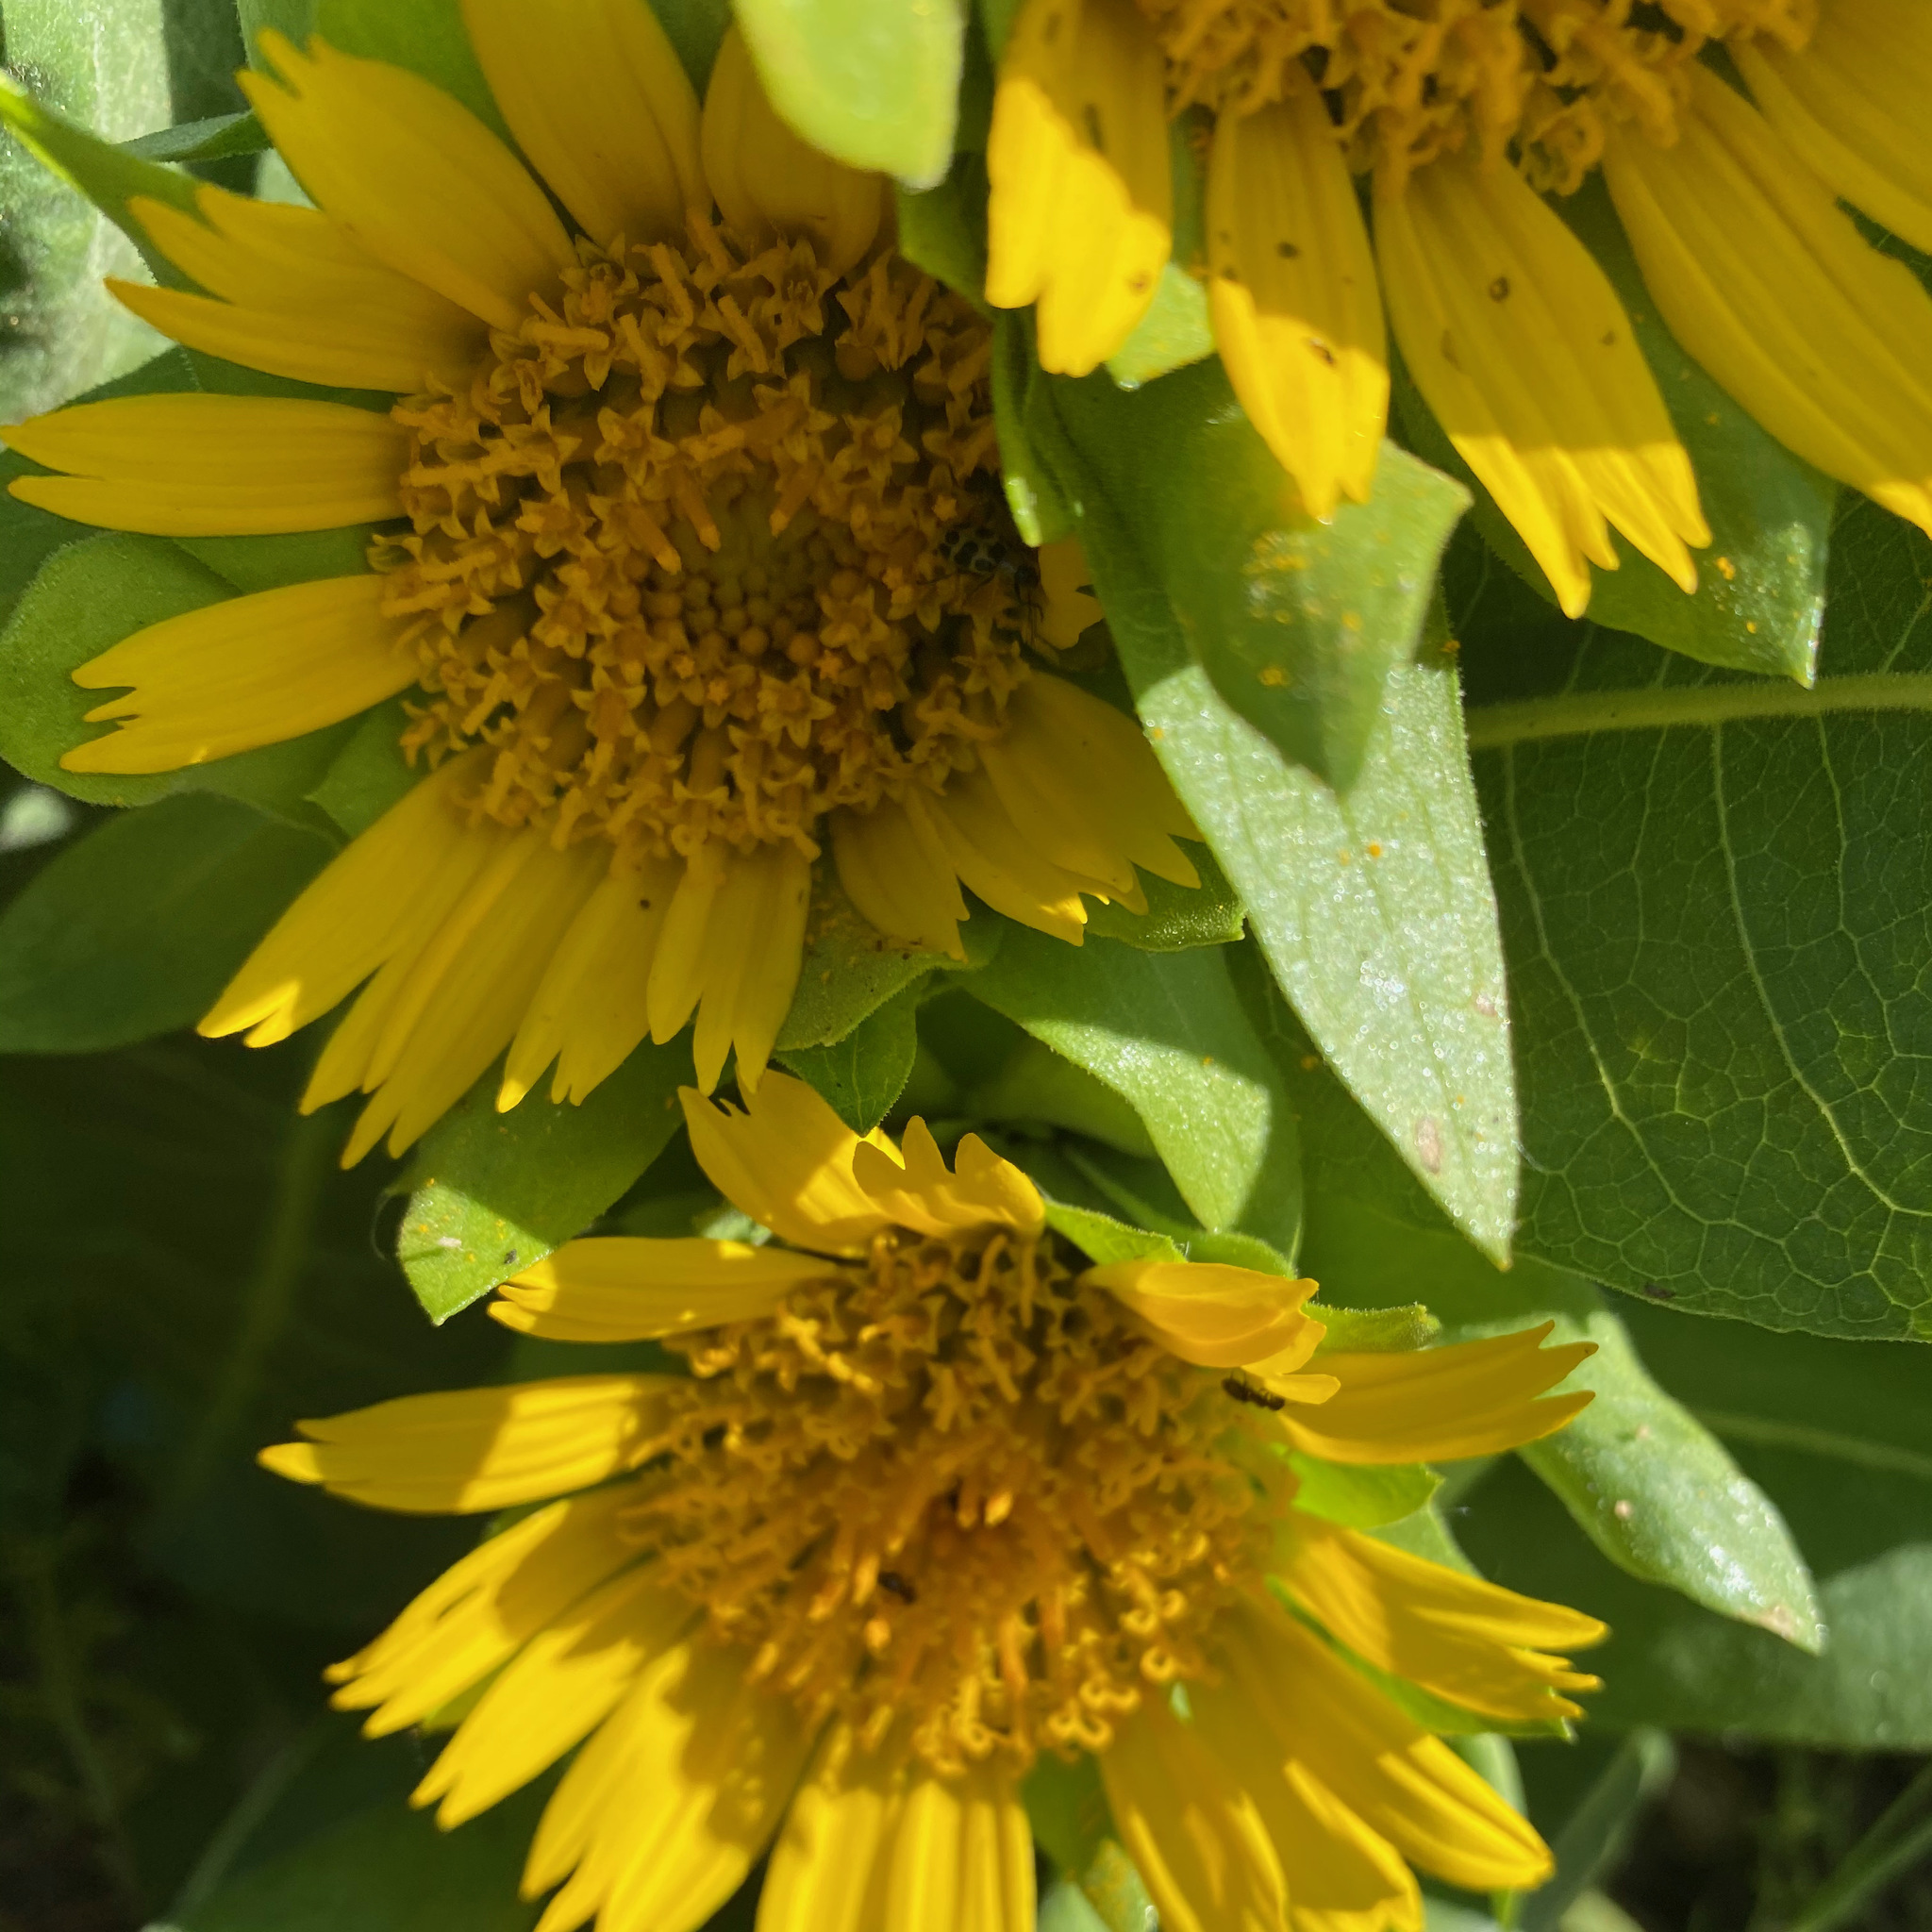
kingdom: Plantae
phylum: Tracheophyta
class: Magnoliopsida
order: Asterales
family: Asteraceae
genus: Wyethia
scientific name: Wyethia glabra
